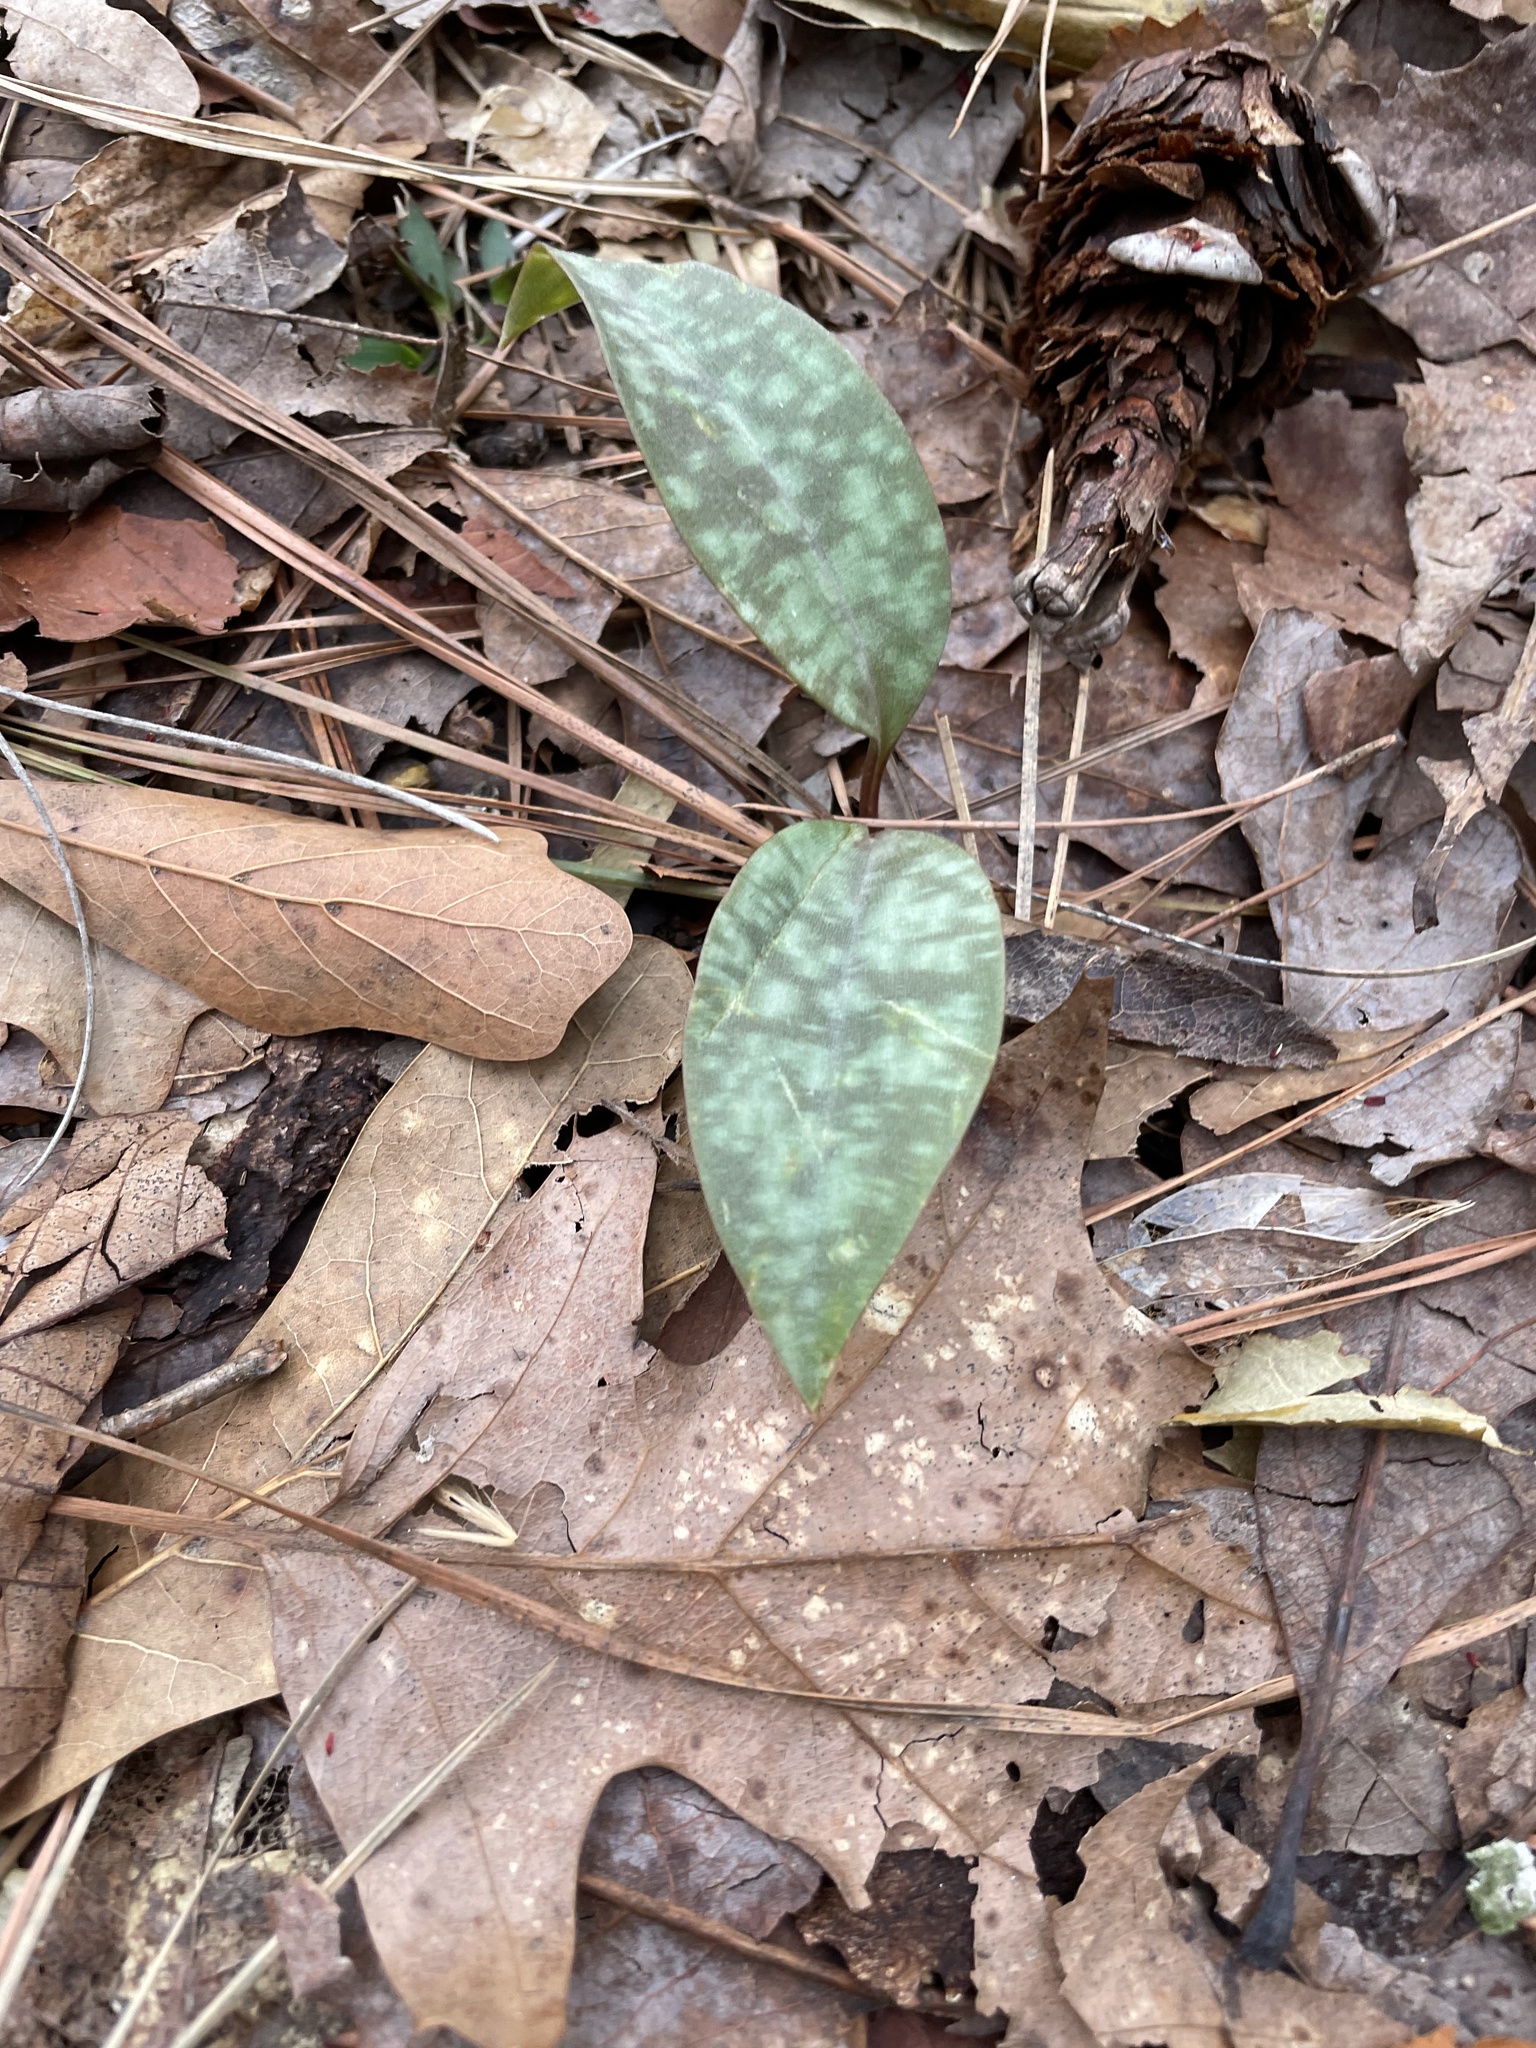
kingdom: Plantae
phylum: Tracheophyta
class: Liliopsida
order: Liliales
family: Liliaceae
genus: Erythronium
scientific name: Erythronium umbilicatum
